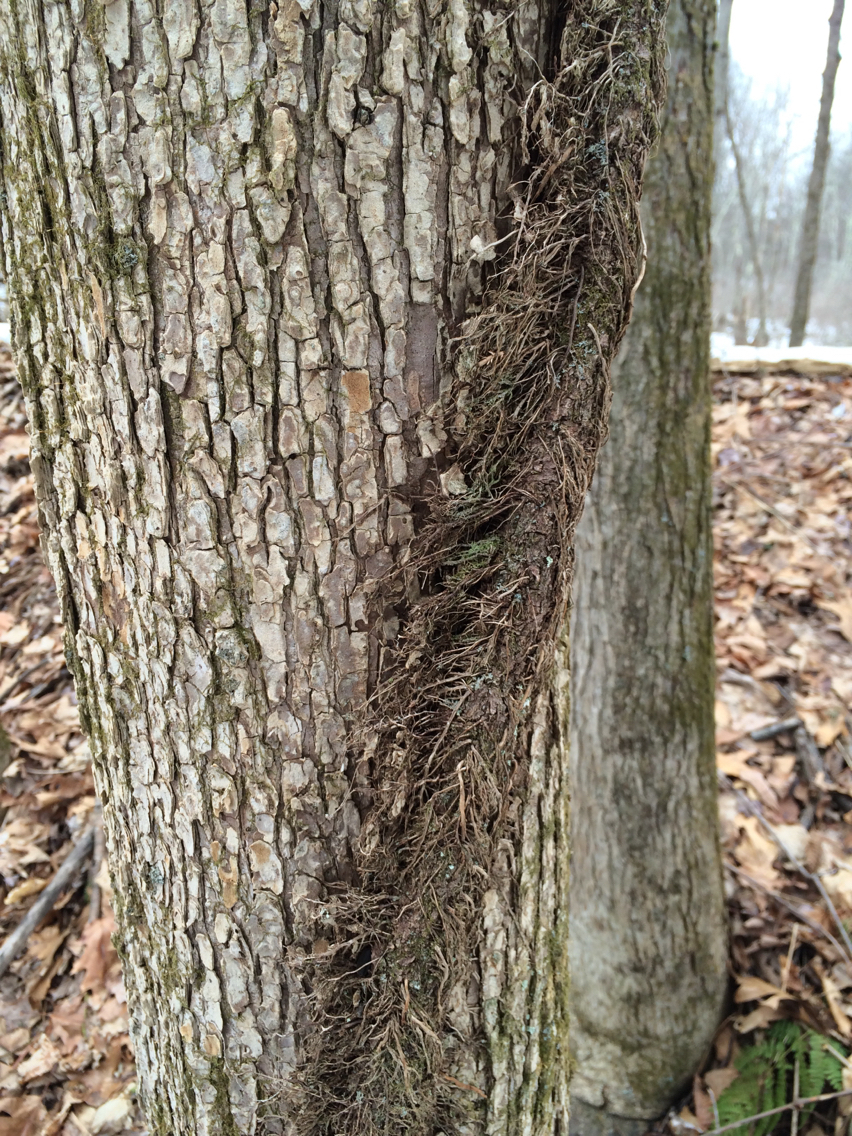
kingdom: Plantae
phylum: Tracheophyta
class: Magnoliopsida
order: Sapindales
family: Anacardiaceae
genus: Toxicodendron
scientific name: Toxicodendron radicans
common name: Poison ivy
